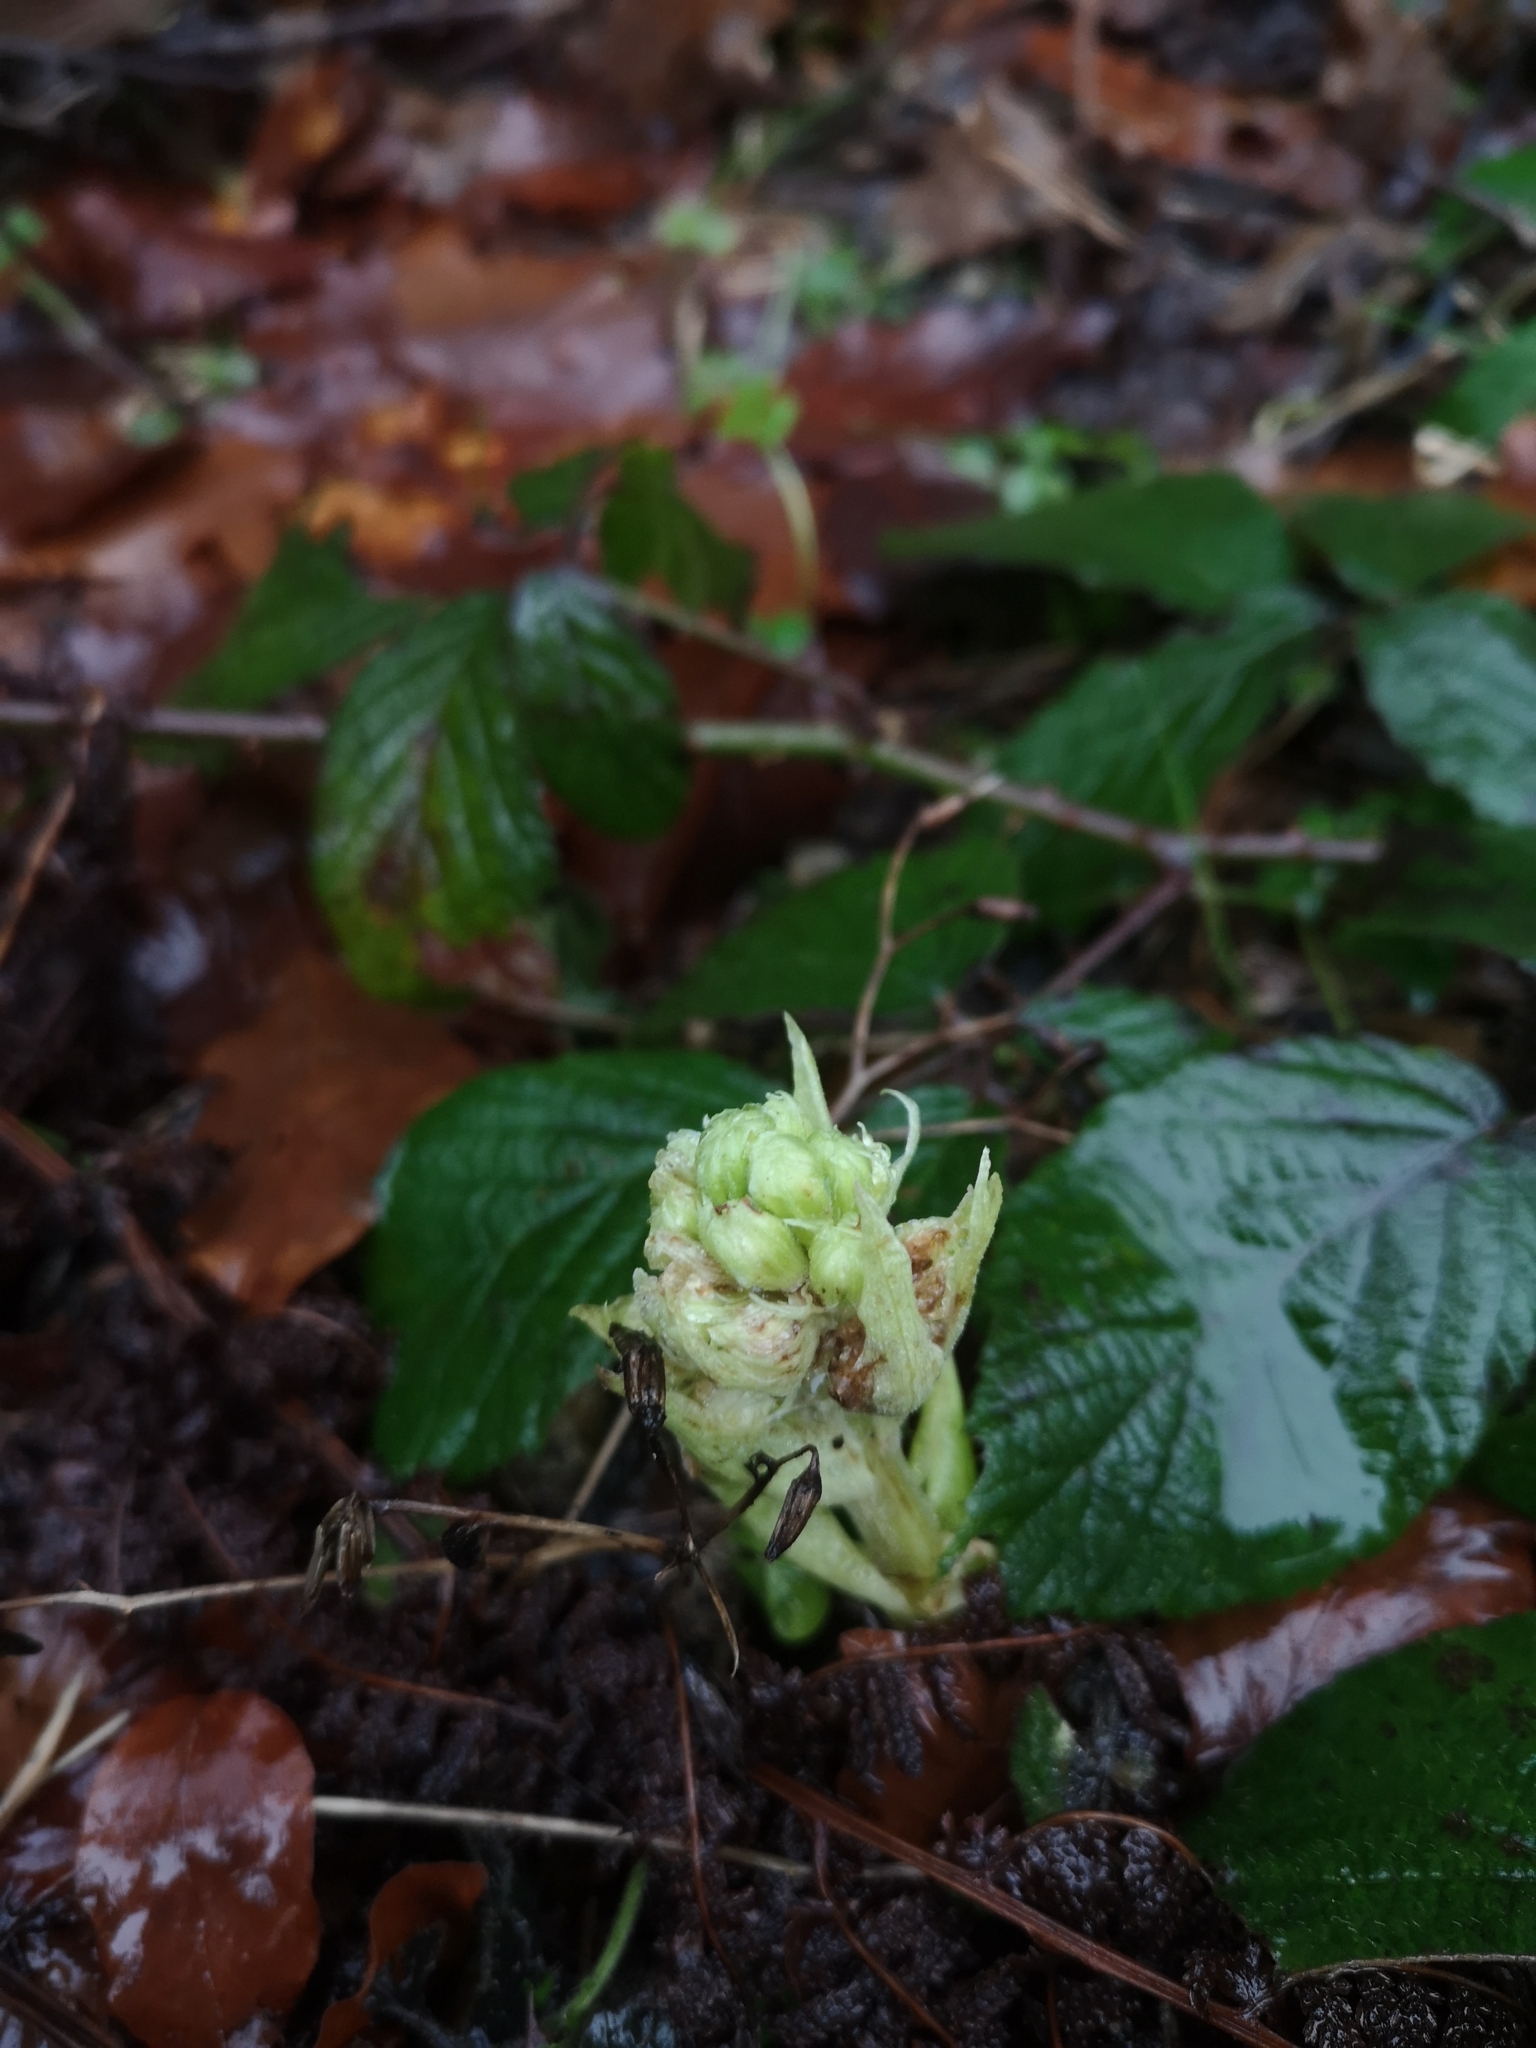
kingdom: Plantae
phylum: Tracheophyta
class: Magnoliopsida
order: Asterales
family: Asteraceae
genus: Petasites
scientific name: Petasites albus
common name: White butterbur
